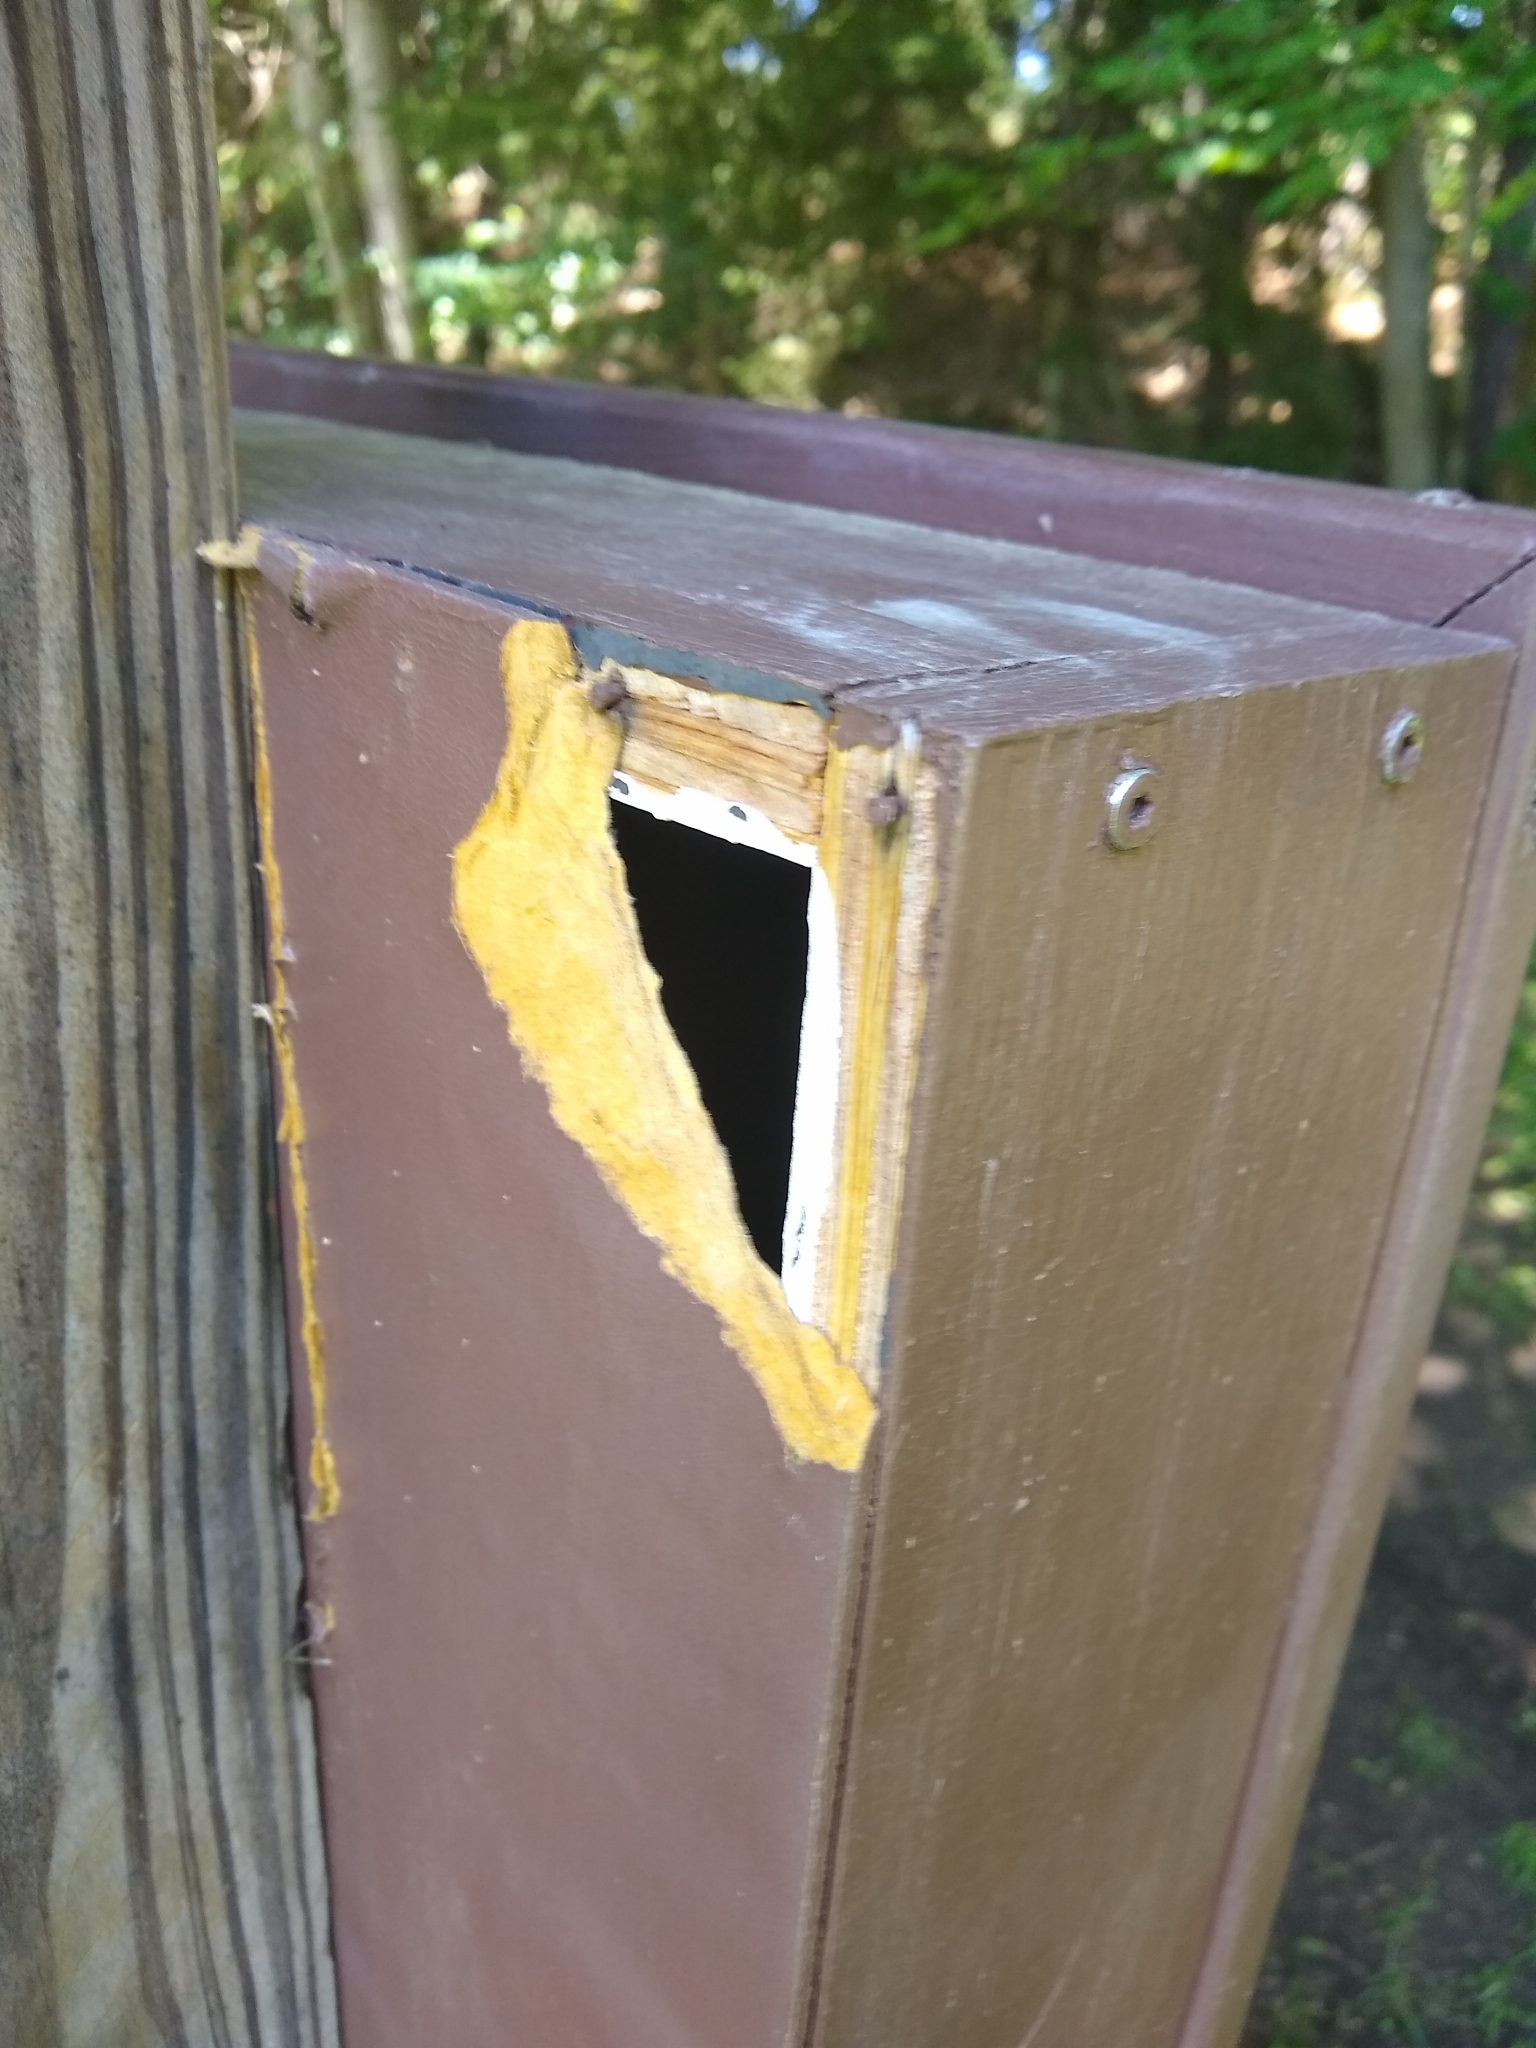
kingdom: Animalia
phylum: Chordata
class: Aves
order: Passeriformes
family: Troglodytidae
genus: Troglodytes
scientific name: Troglodytes aedon
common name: House wren
